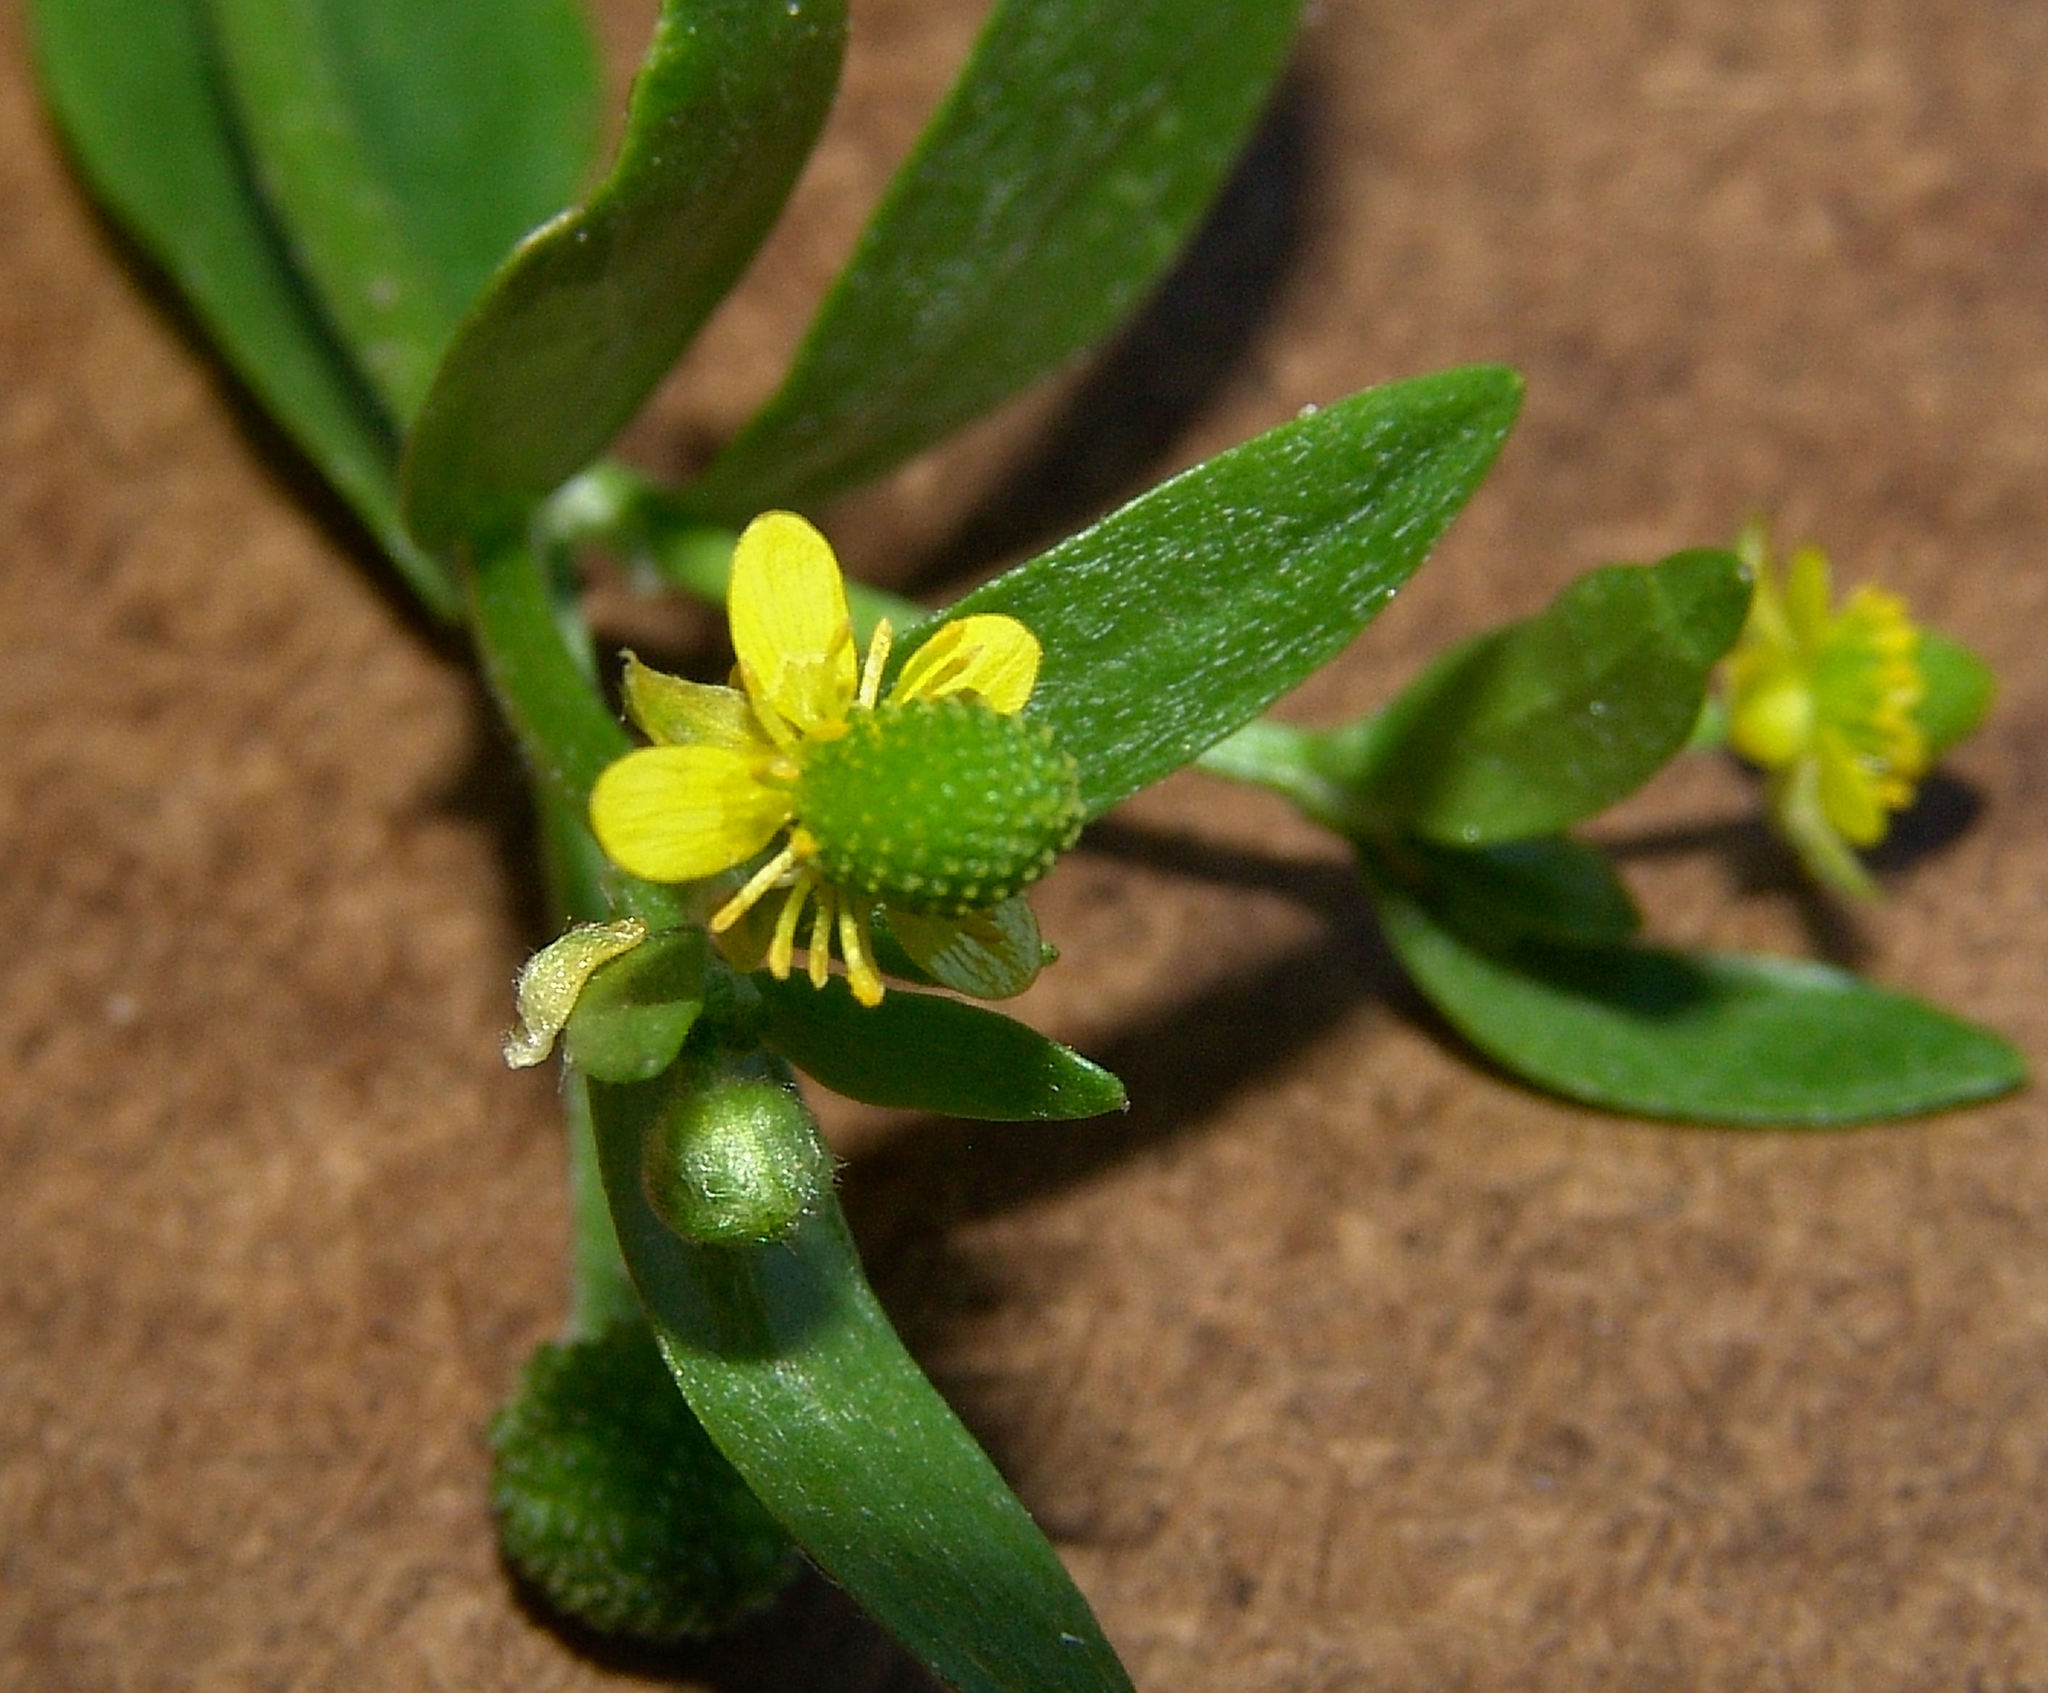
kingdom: Plantae
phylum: Tracheophyta
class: Magnoliopsida
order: Ranunculales
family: Ranunculaceae
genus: Ranunculus
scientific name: Ranunculus sceleratus
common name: Celery-leaved buttercup
